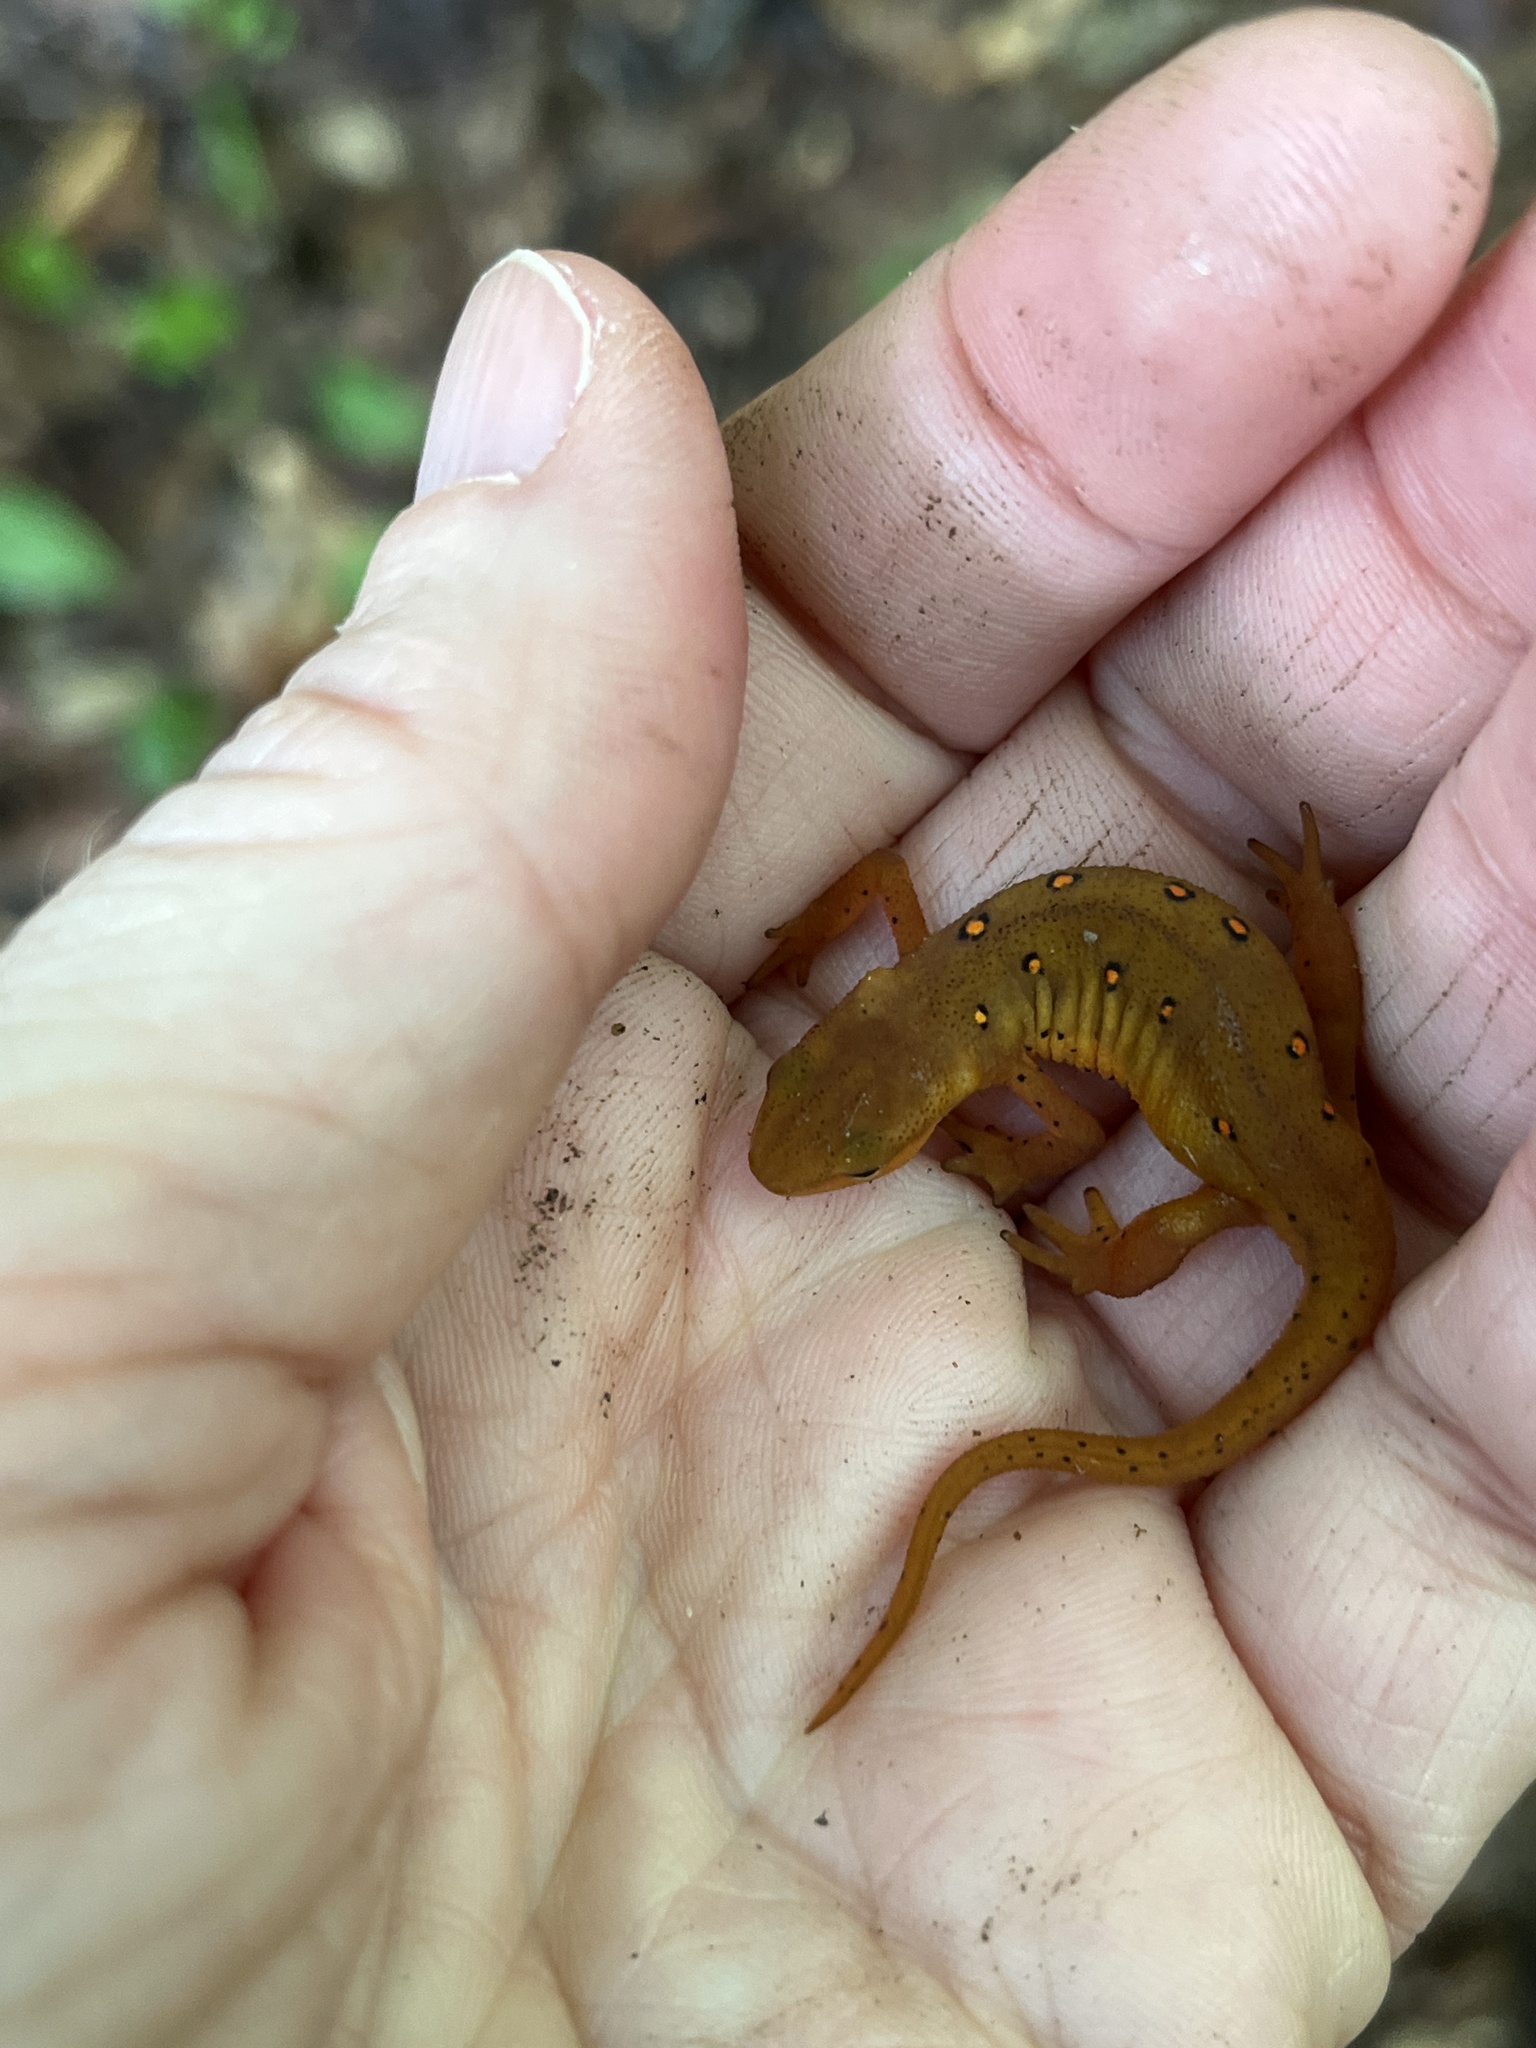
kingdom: Animalia
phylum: Chordata
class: Amphibia
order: Caudata
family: Salamandridae
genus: Notophthalmus
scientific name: Notophthalmus viridescens
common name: Eastern newt
